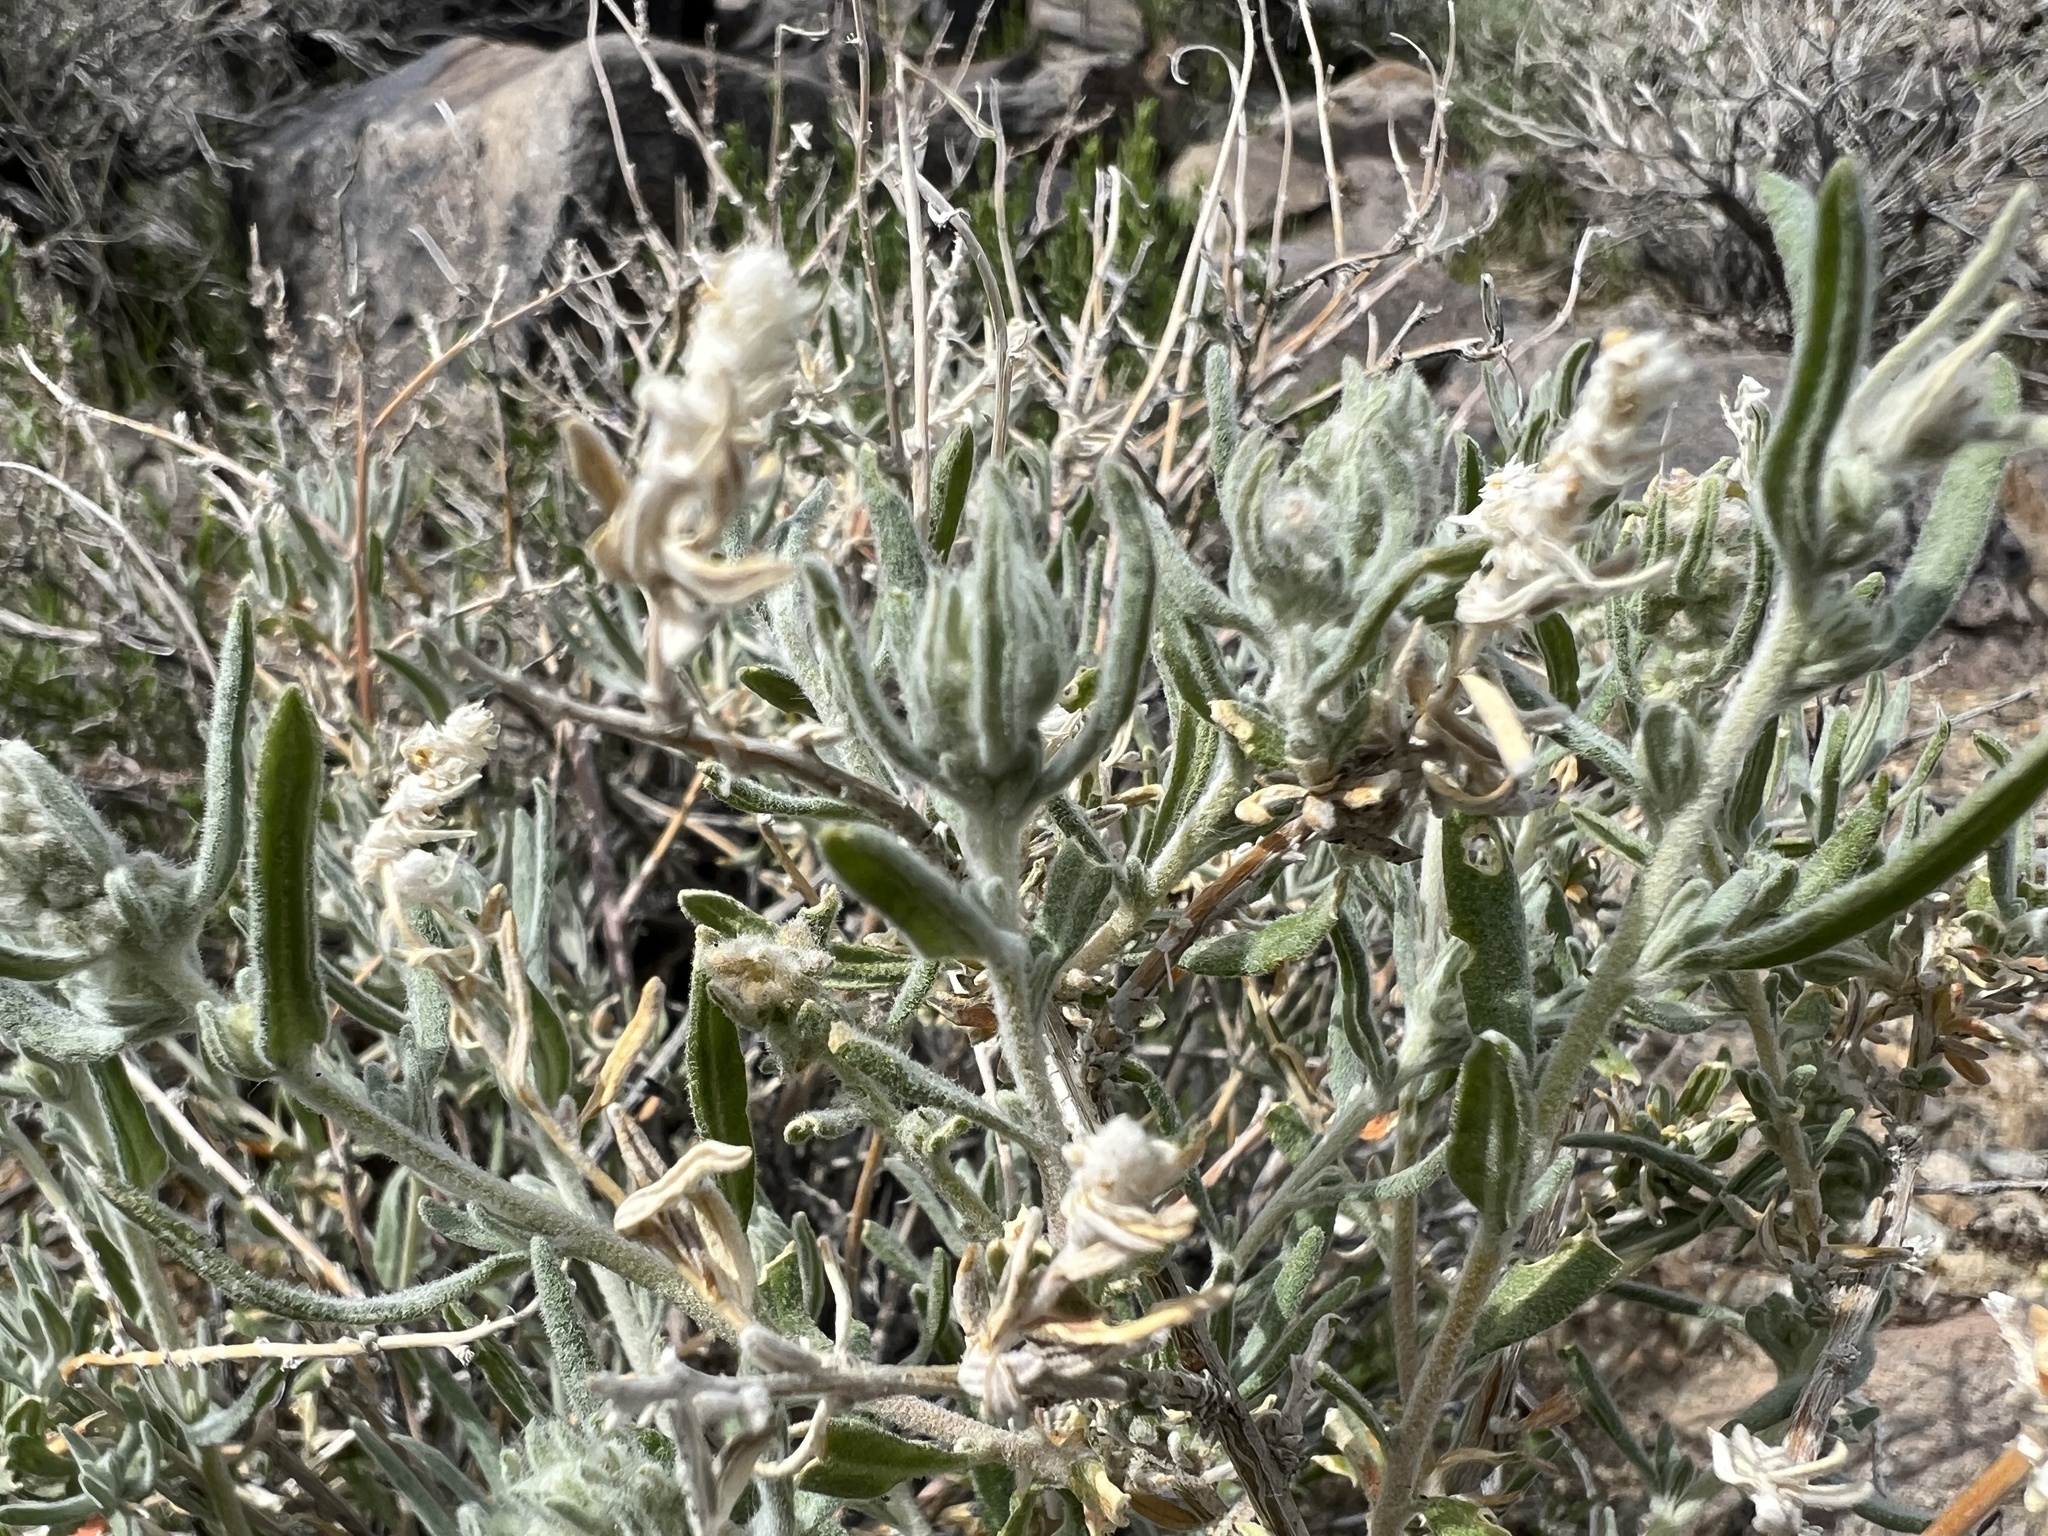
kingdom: Plantae
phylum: Tracheophyta
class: Magnoliopsida
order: Caryophyllales
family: Amaranthaceae
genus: Krascheninnikovia
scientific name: Krascheninnikovia lanata
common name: Winterfat
